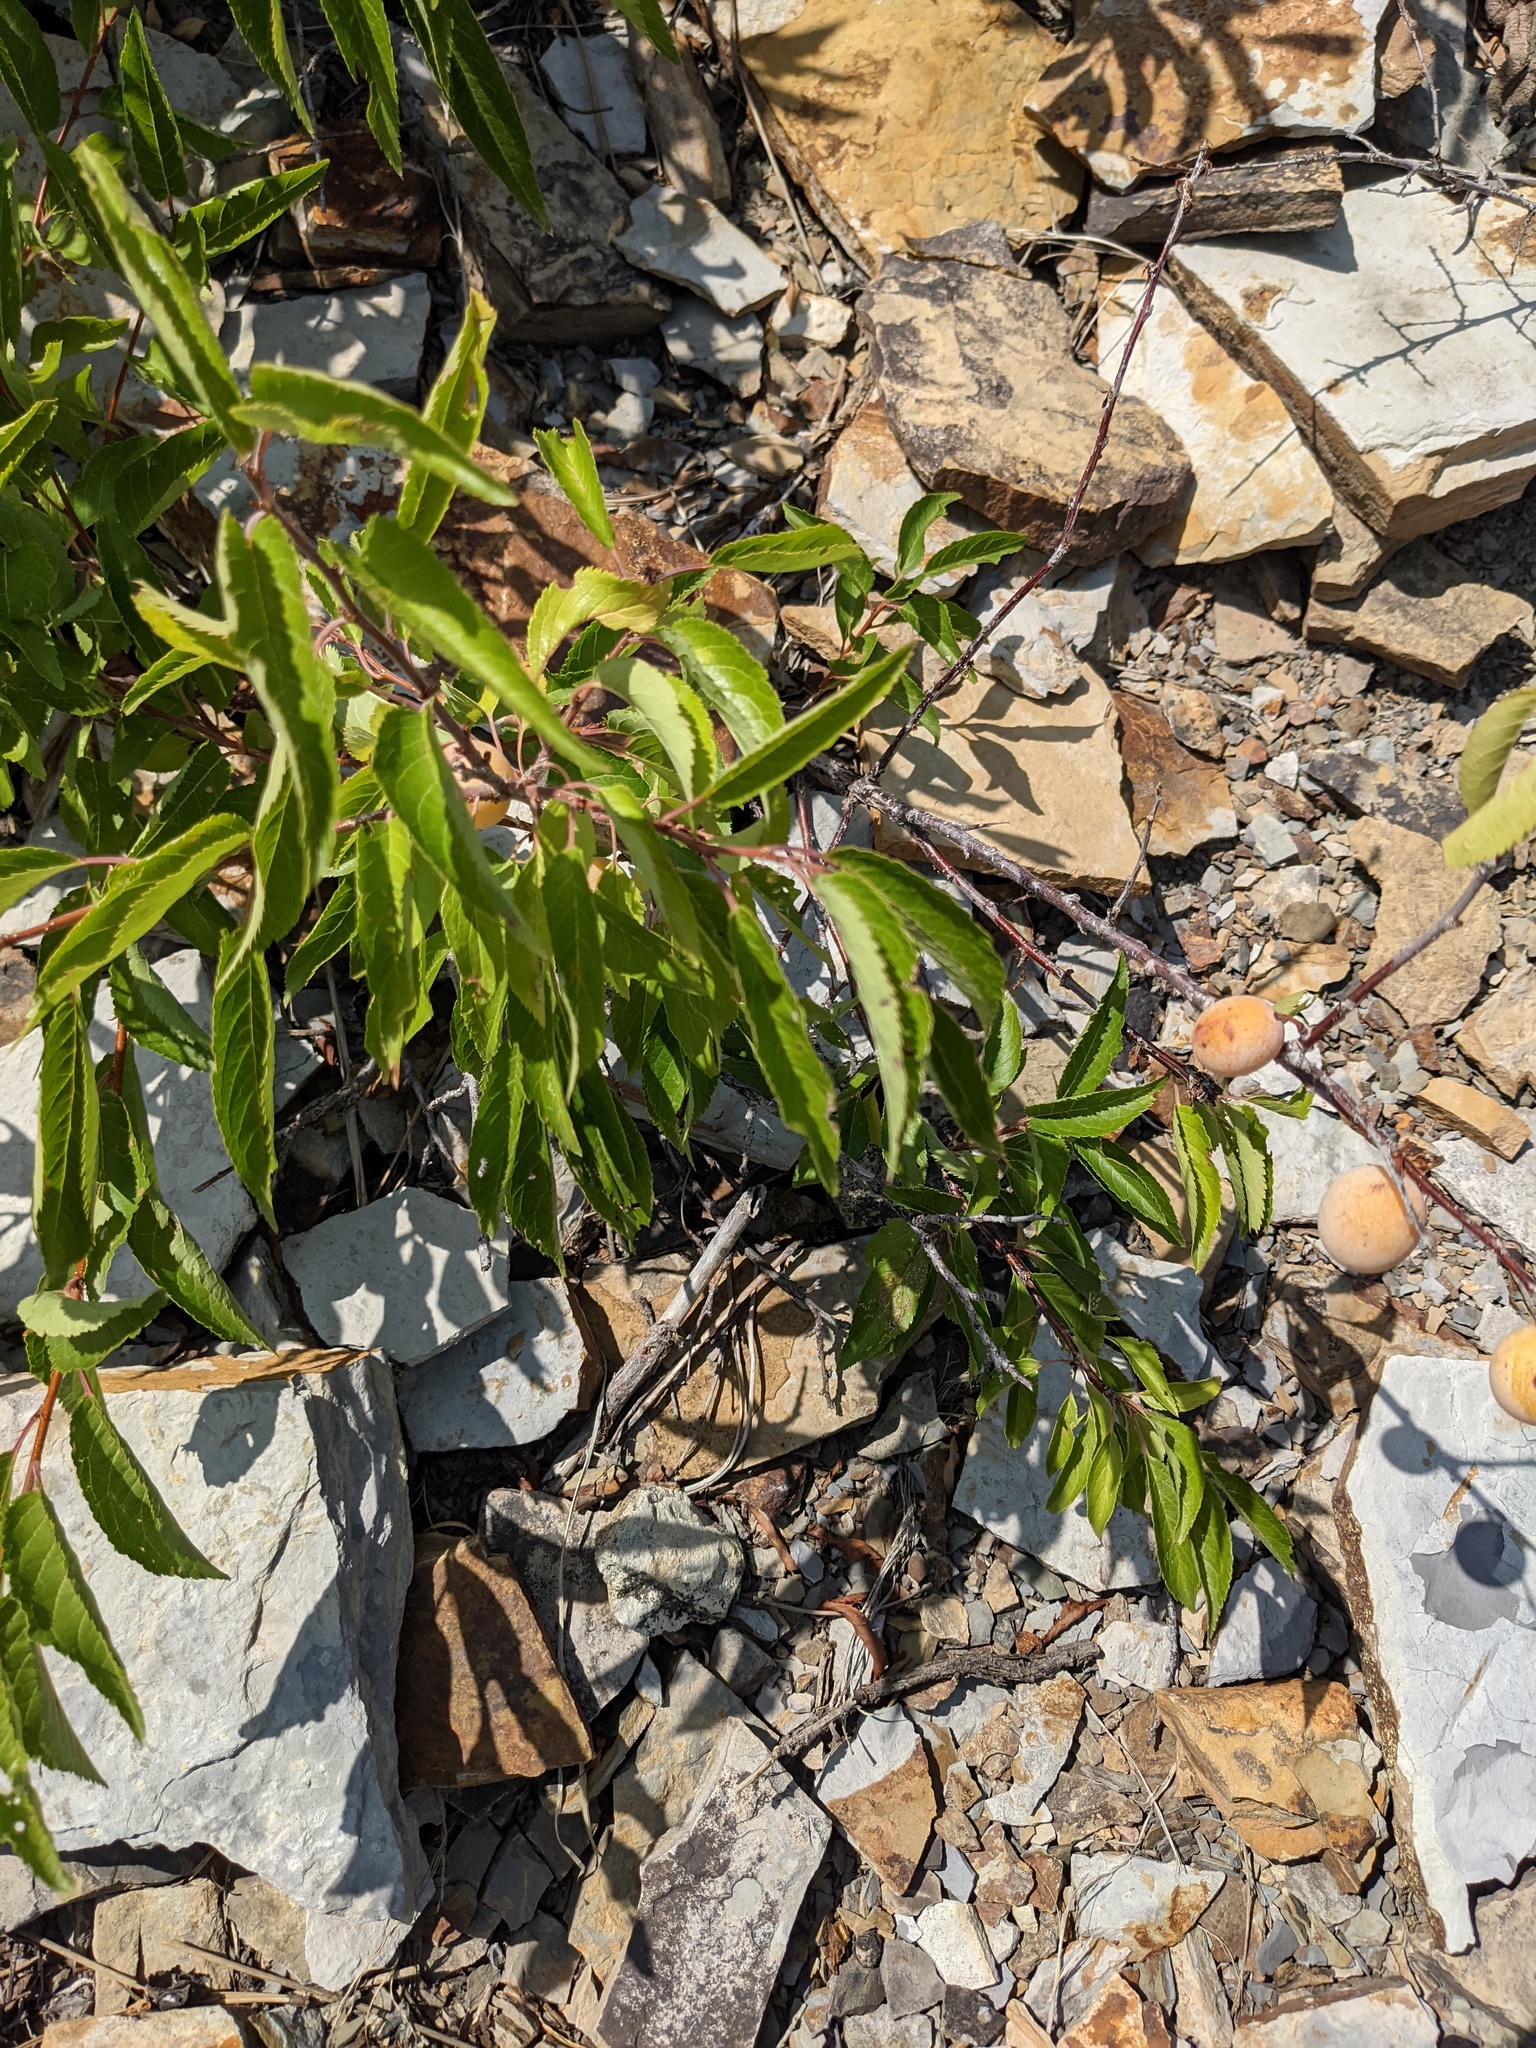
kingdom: Plantae
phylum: Tracheophyta
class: Magnoliopsida
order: Rosales
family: Rosaceae
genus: Prunus
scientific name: Prunus americana
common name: American plum
